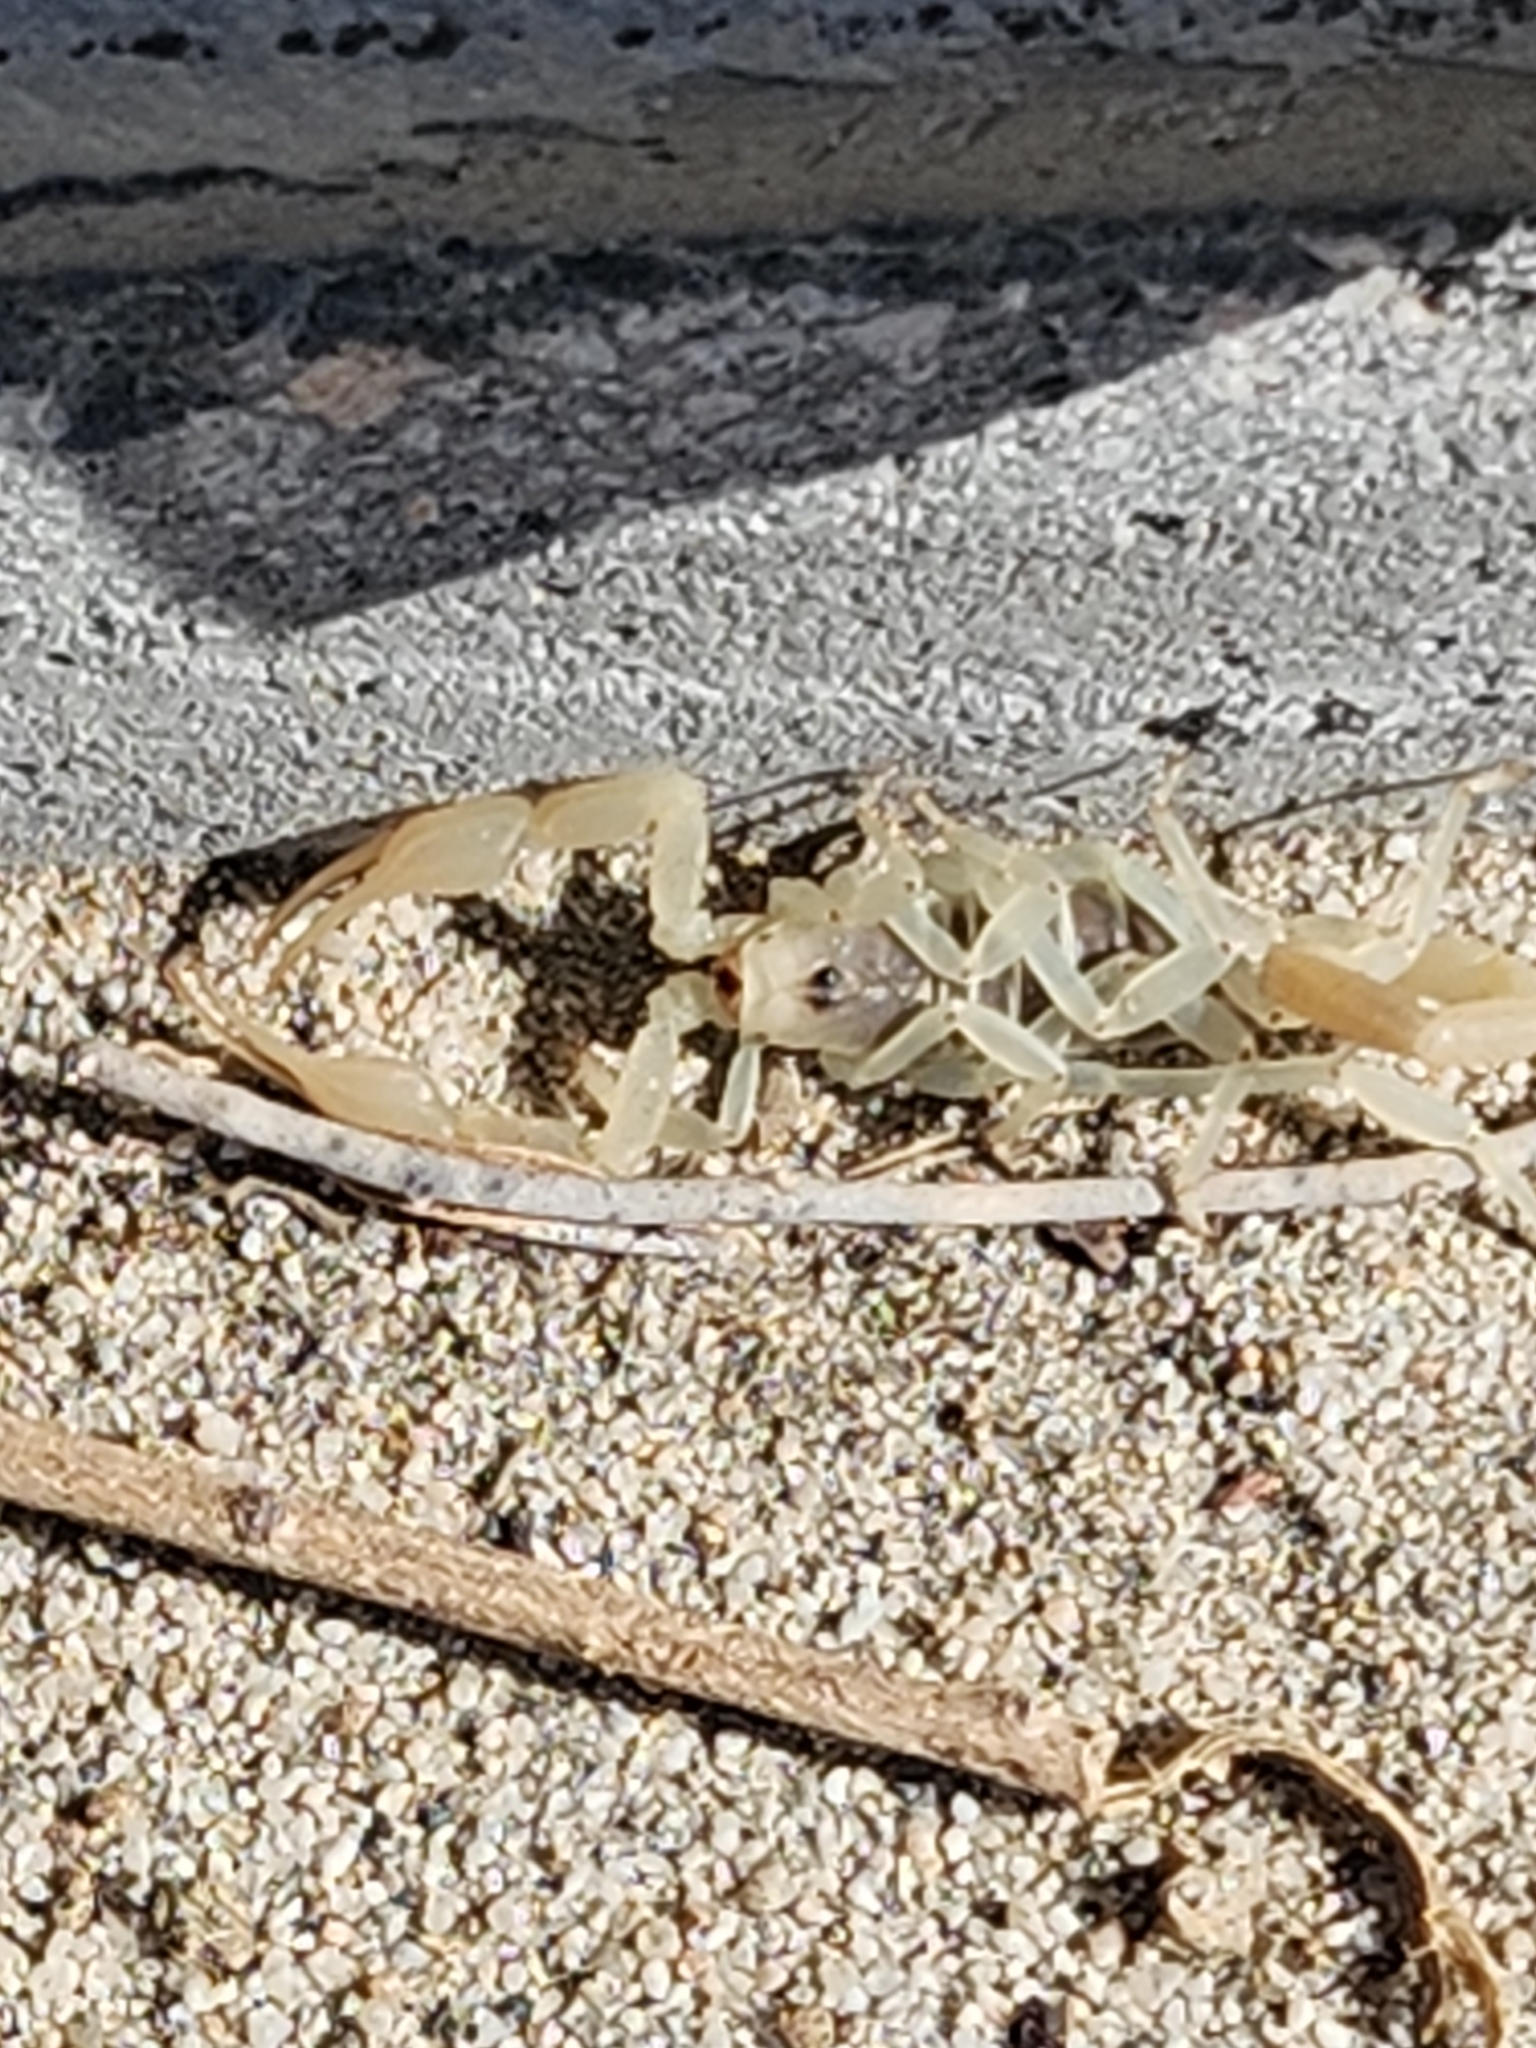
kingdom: Animalia
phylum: Arthropoda
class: Arachnida
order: Scorpiones
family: Vaejovidae
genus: Smeringurus
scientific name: Smeringurus mesaensis
